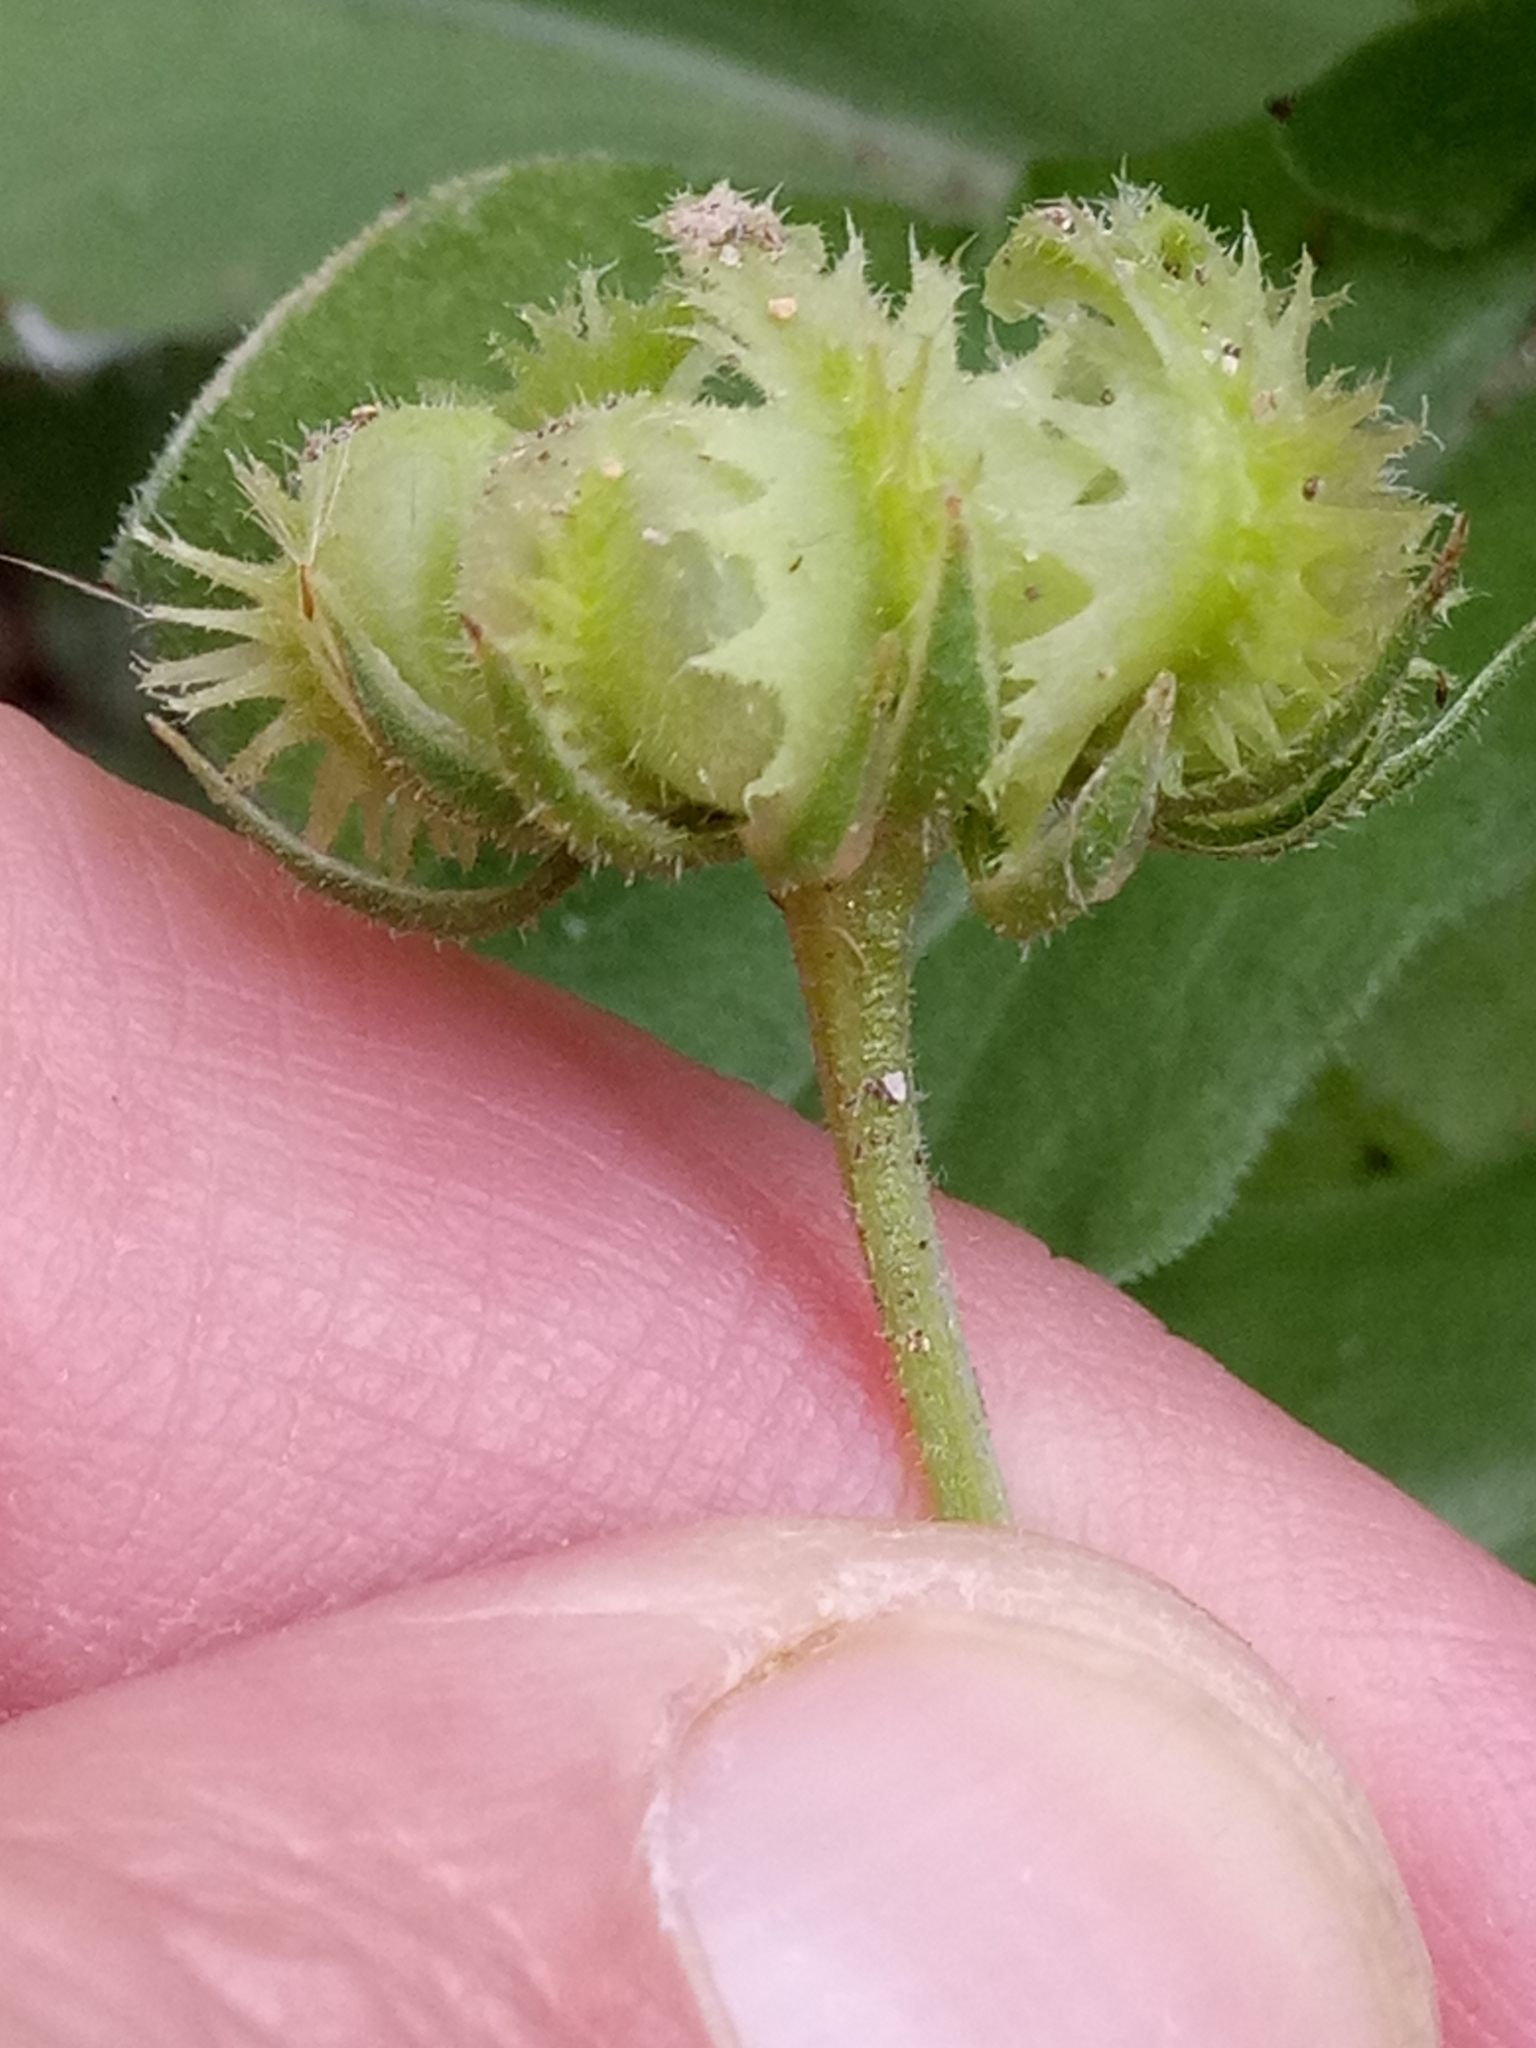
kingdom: Plantae
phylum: Tracheophyta
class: Magnoliopsida
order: Asterales
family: Asteraceae
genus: Calendula
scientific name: Calendula arvensis
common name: Field marigold
